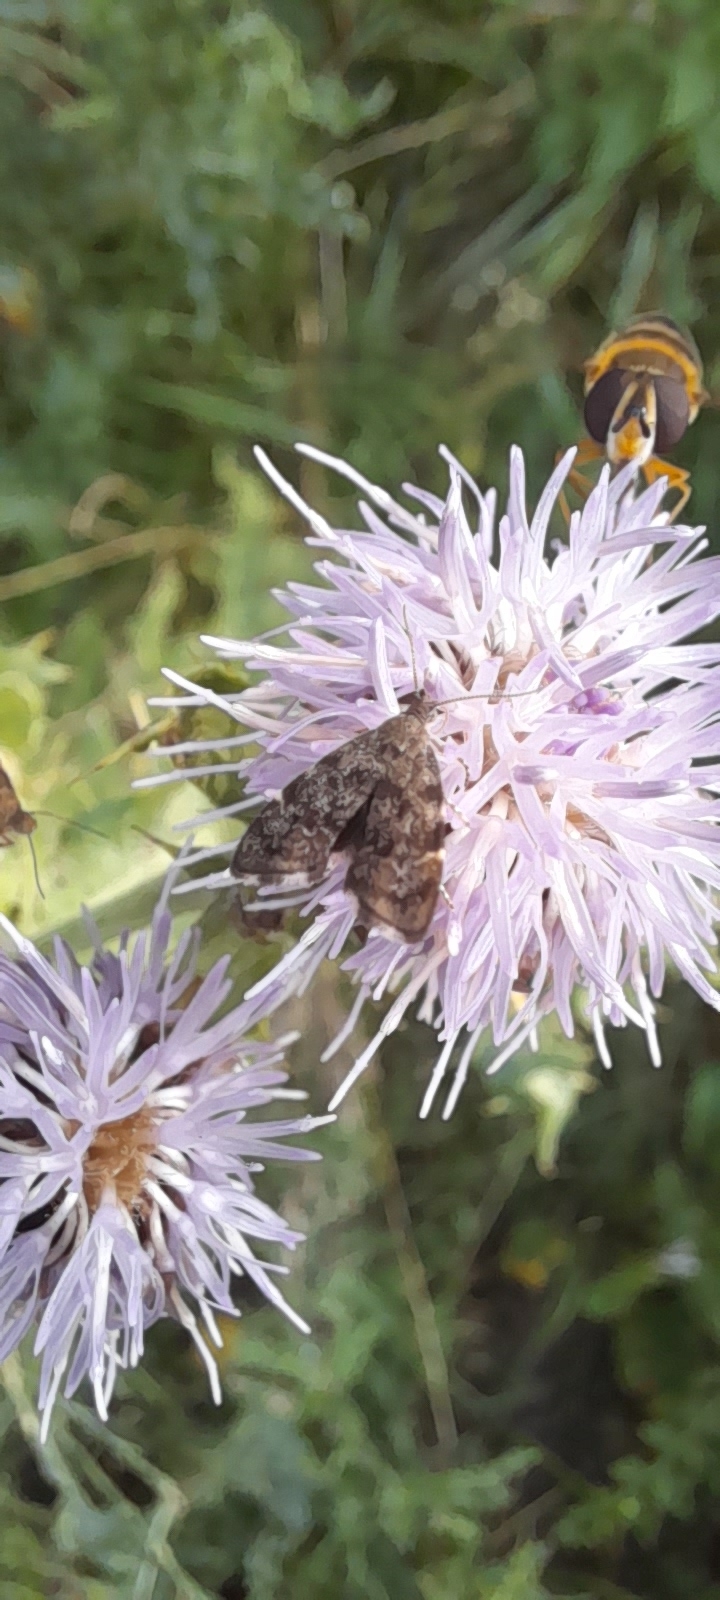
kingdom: Animalia
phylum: Arthropoda
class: Insecta
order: Lepidoptera
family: Choreutidae
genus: Anthophila
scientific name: Anthophila fabriciana
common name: Nettle-tap
